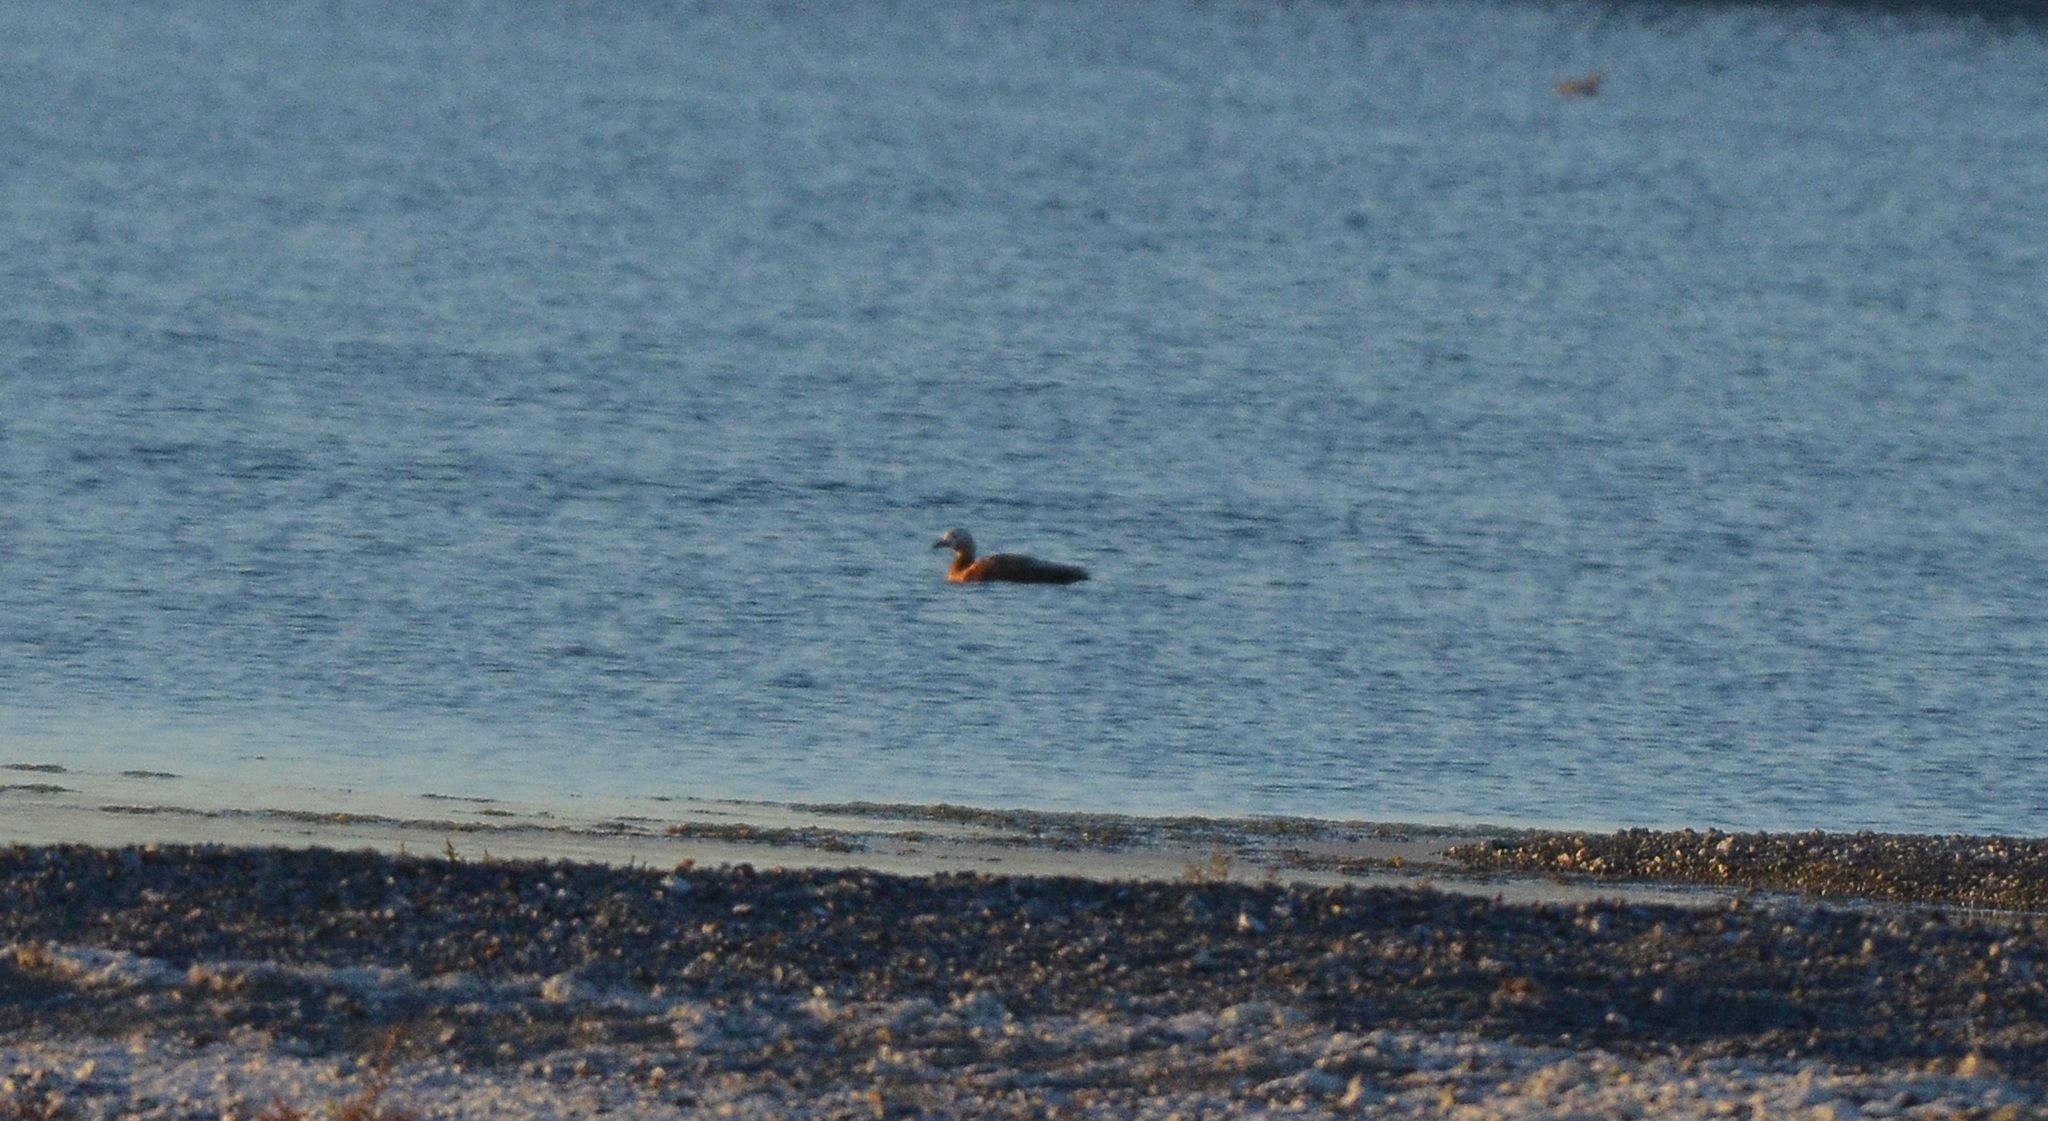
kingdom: Animalia
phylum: Chordata
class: Aves
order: Anseriformes
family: Anatidae
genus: Tadorna
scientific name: Tadorna ferruginea
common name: Ruddy shelduck
